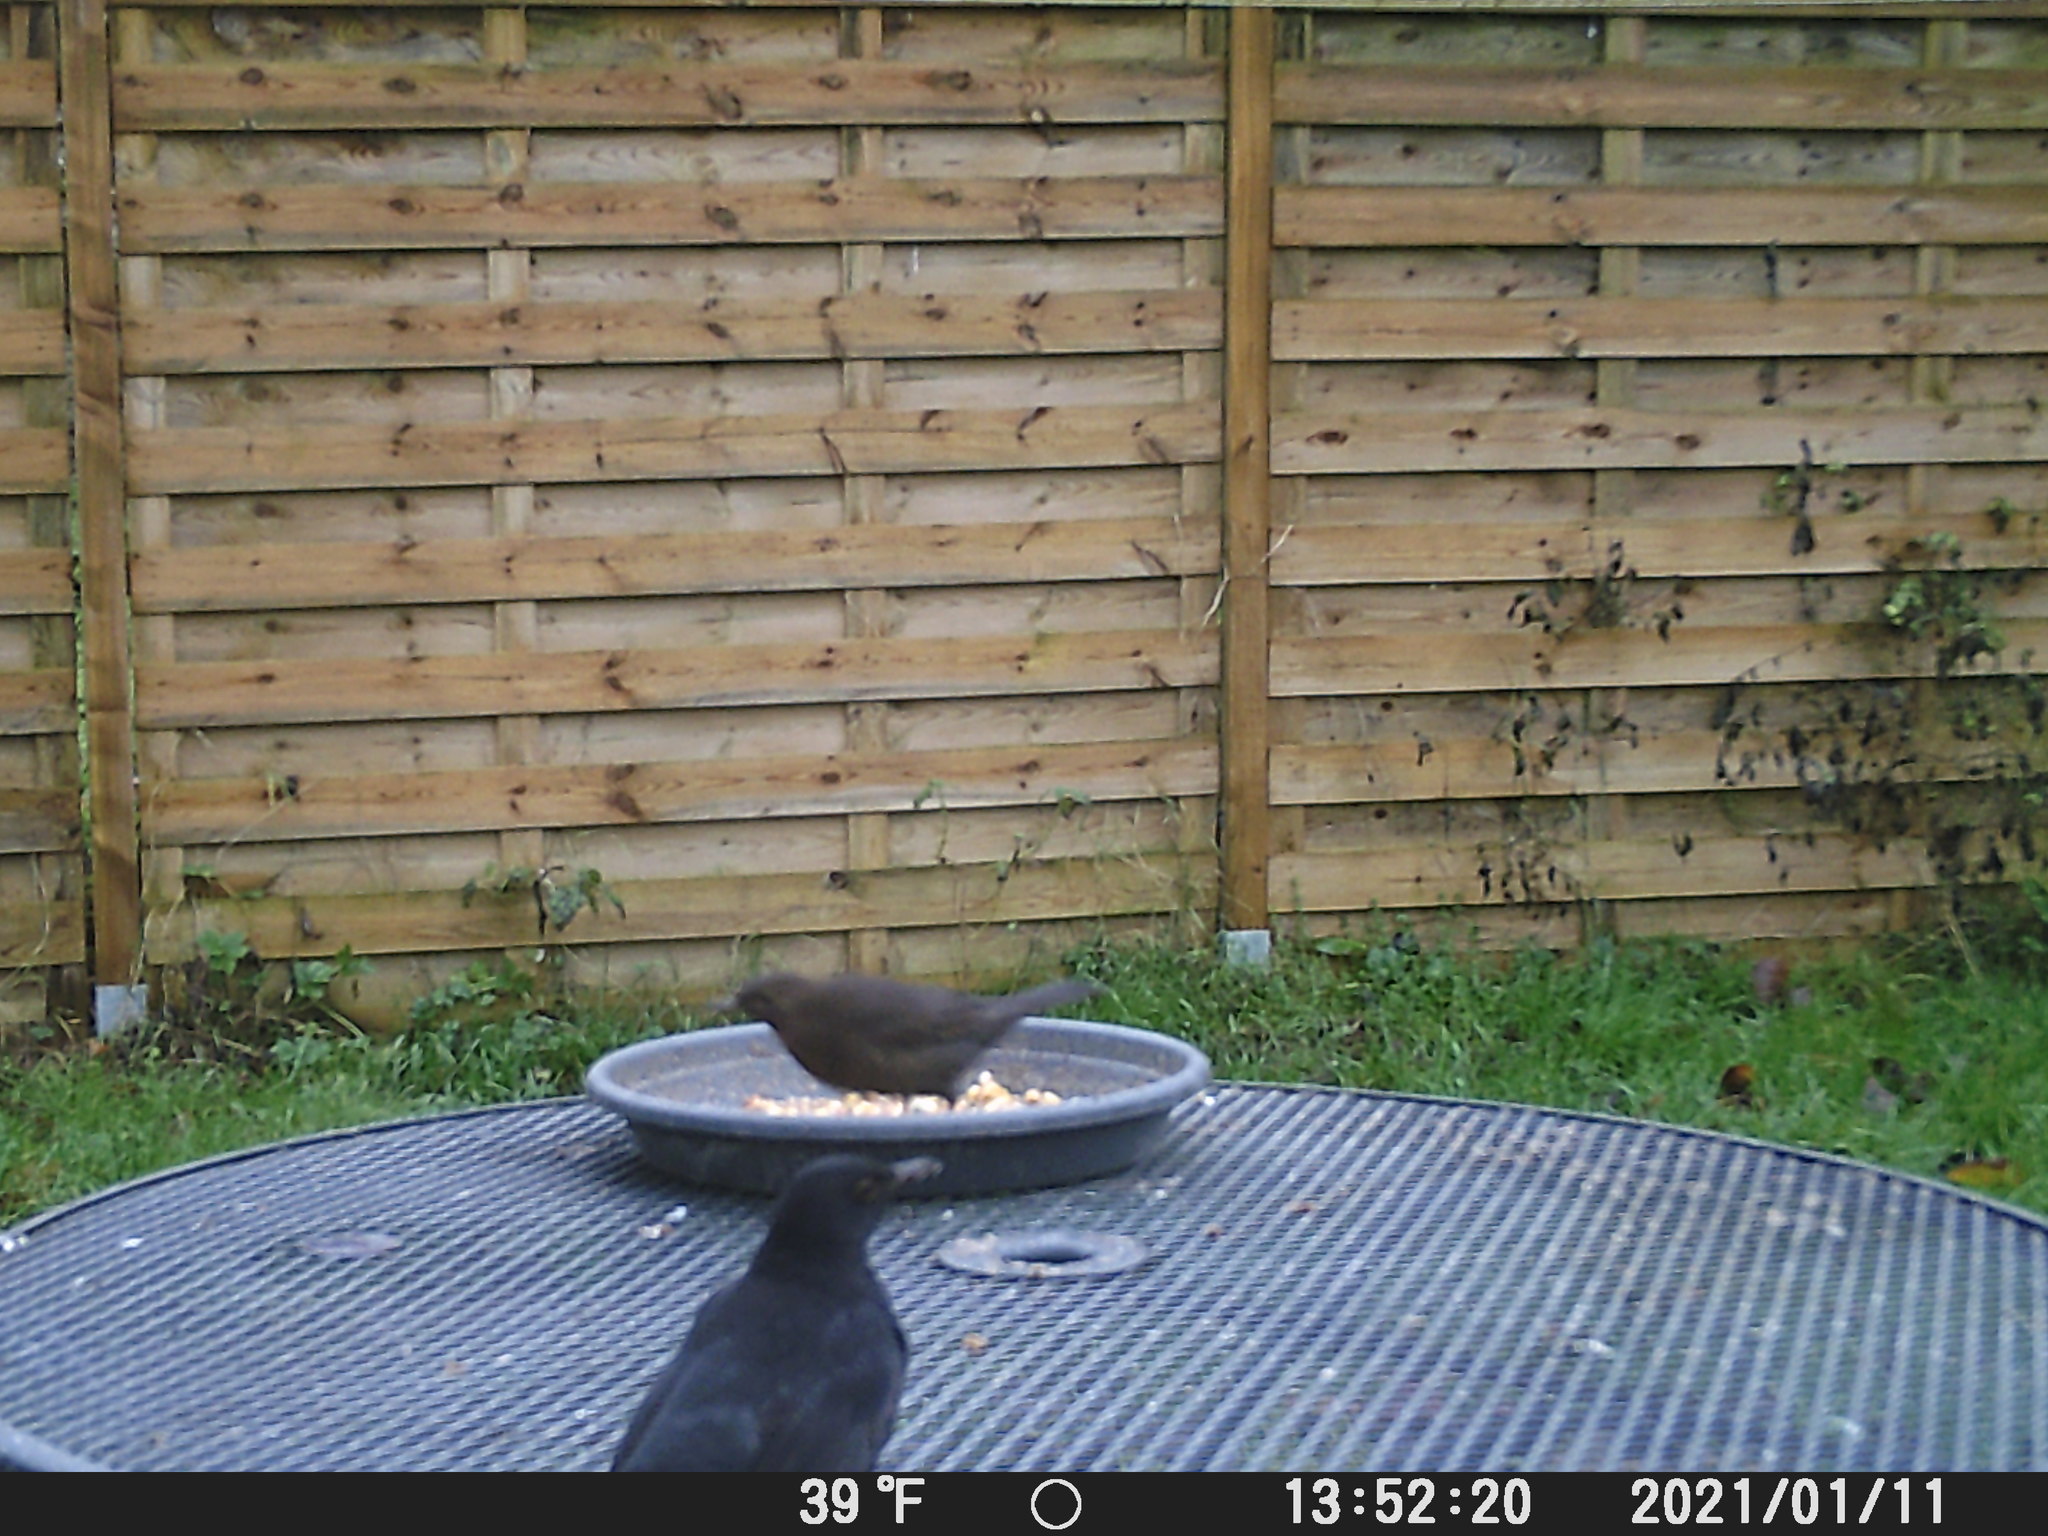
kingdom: Animalia
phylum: Chordata
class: Aves
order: Passeriformes
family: Turdidae
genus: Turdus
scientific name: Turdus merula
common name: Common blackbird
